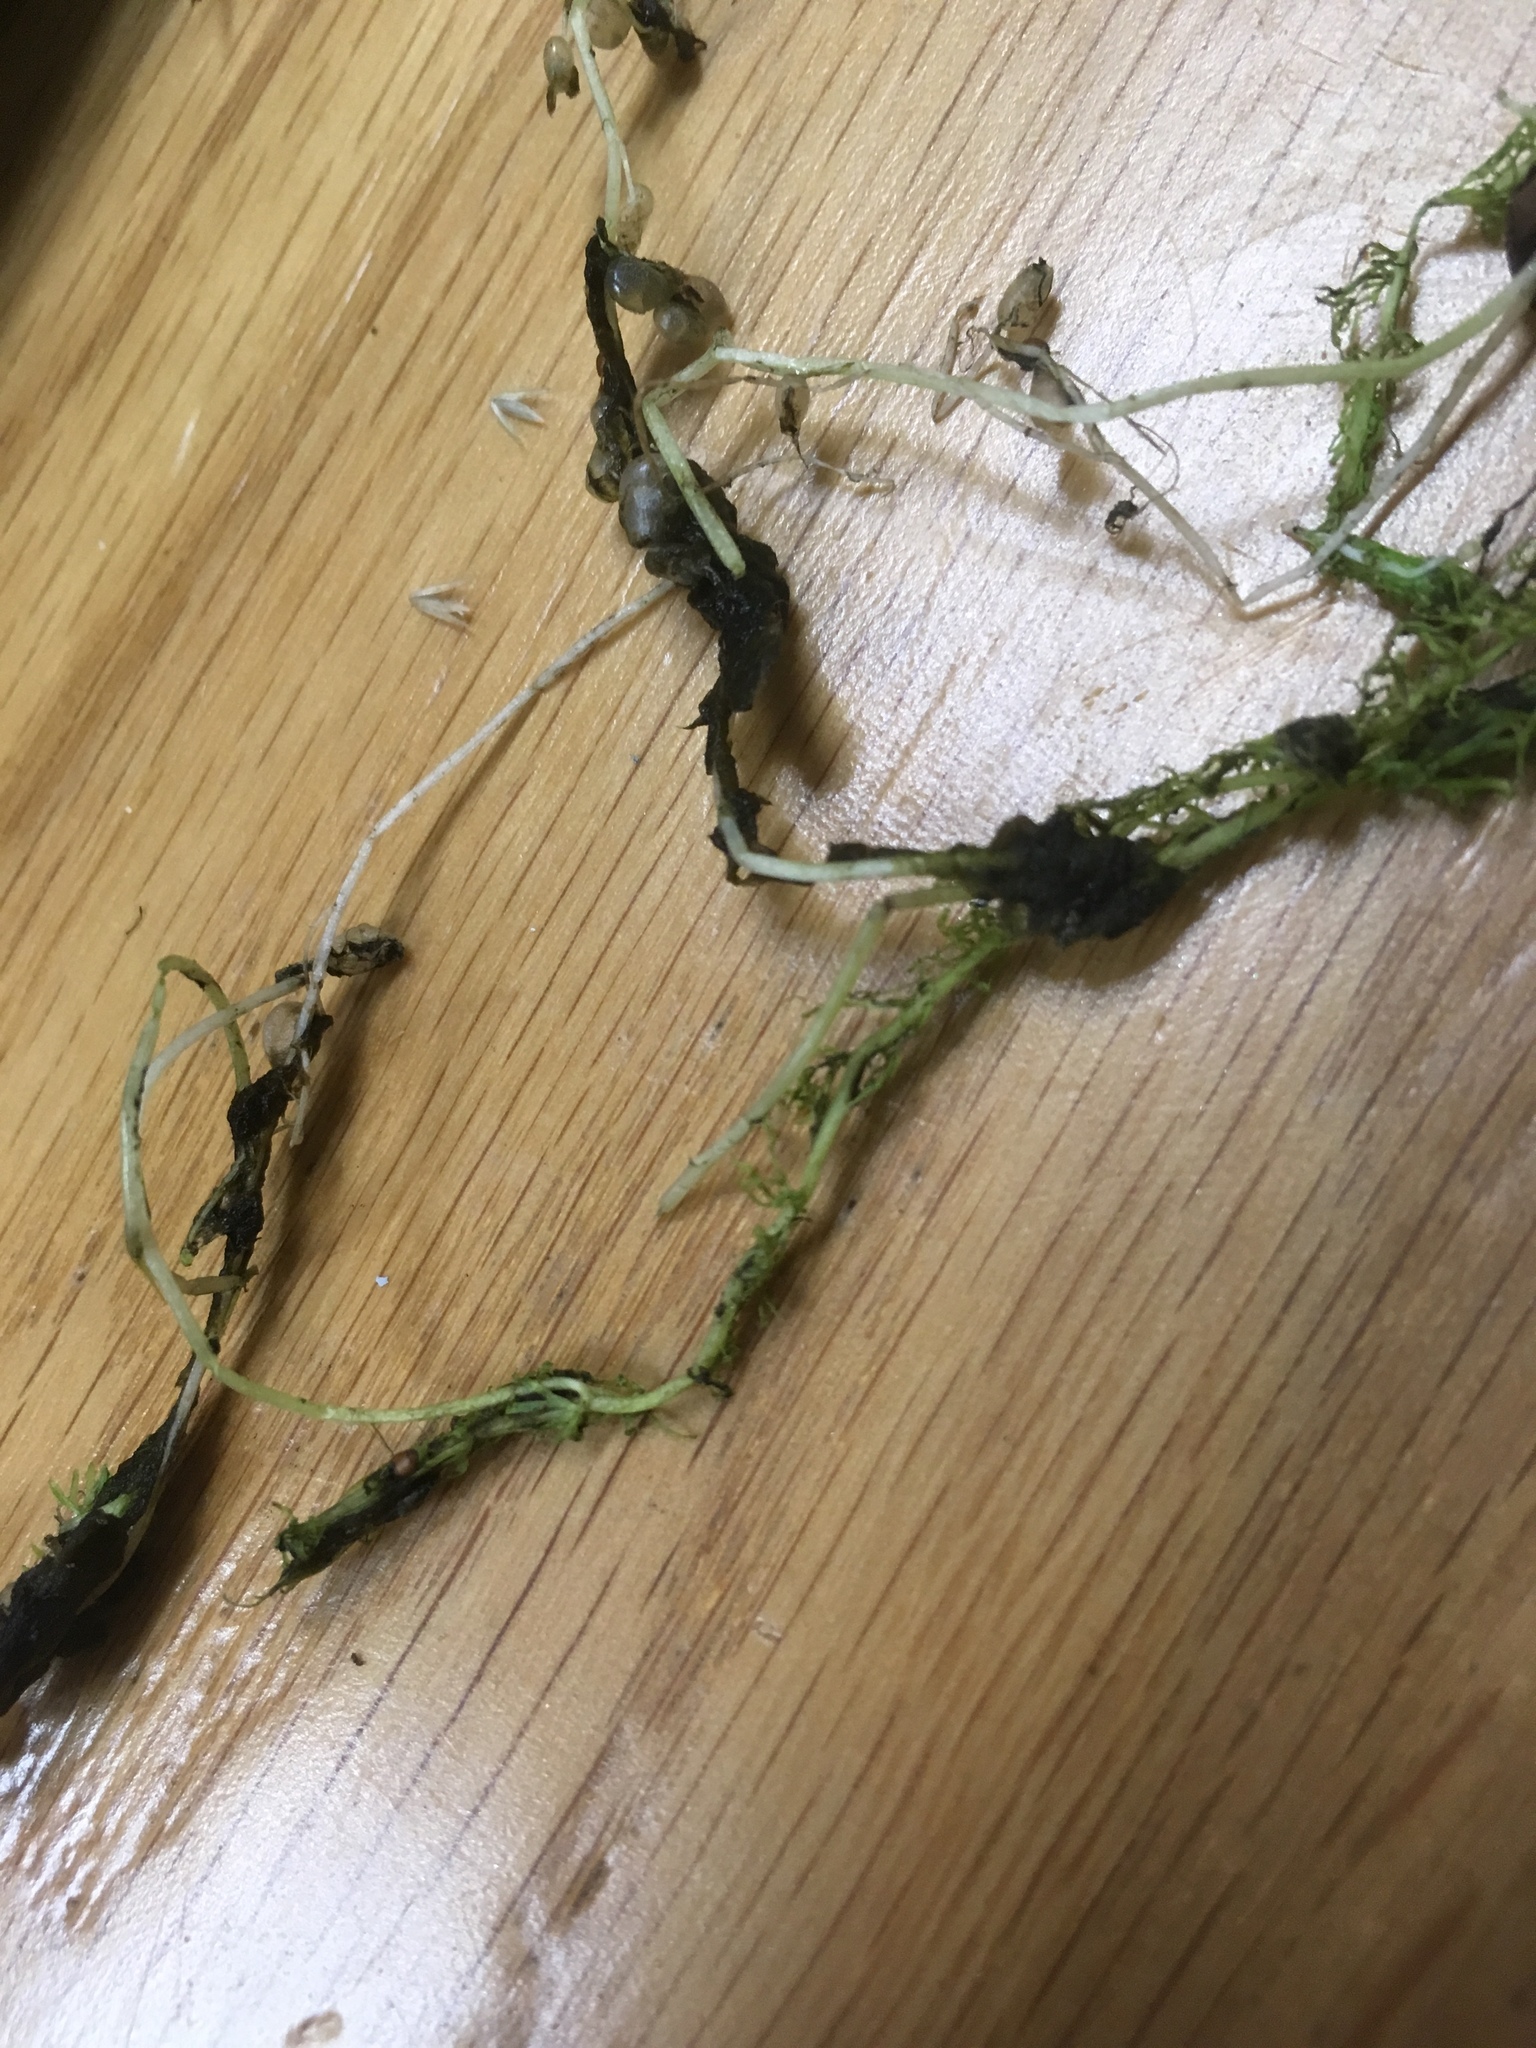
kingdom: Plantae
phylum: Tracheophyta
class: Magnoliopsida
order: Lamiales
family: Lentibulariaceae
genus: Utricularia
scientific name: Utricularia intermedia
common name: Intermediate bladderwort
